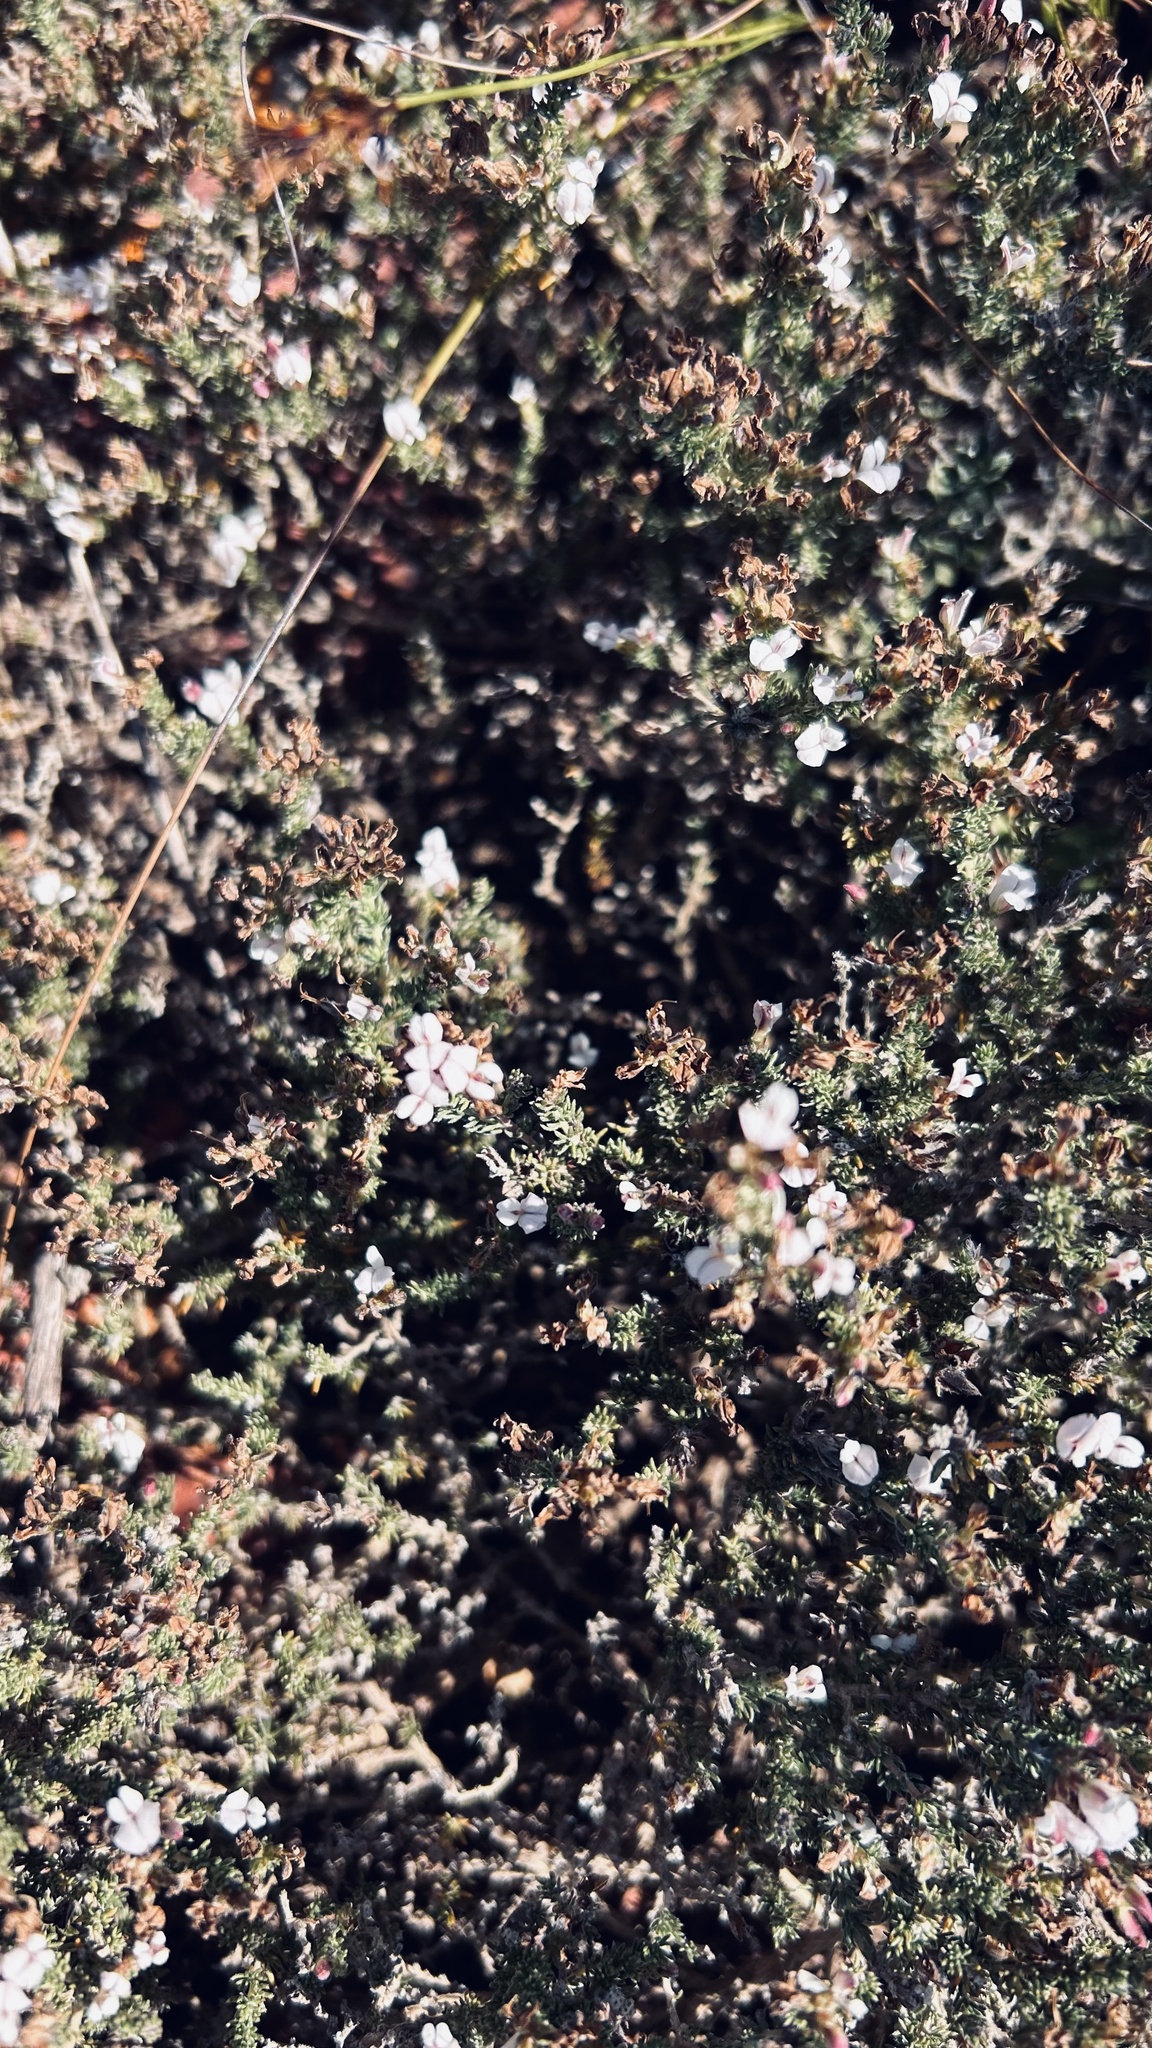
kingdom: Plantae
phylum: Tracheophyta
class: Magnoliopsida
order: Fabales
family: Fabaceae
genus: Aspalathus
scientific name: Aspalathus hispida
